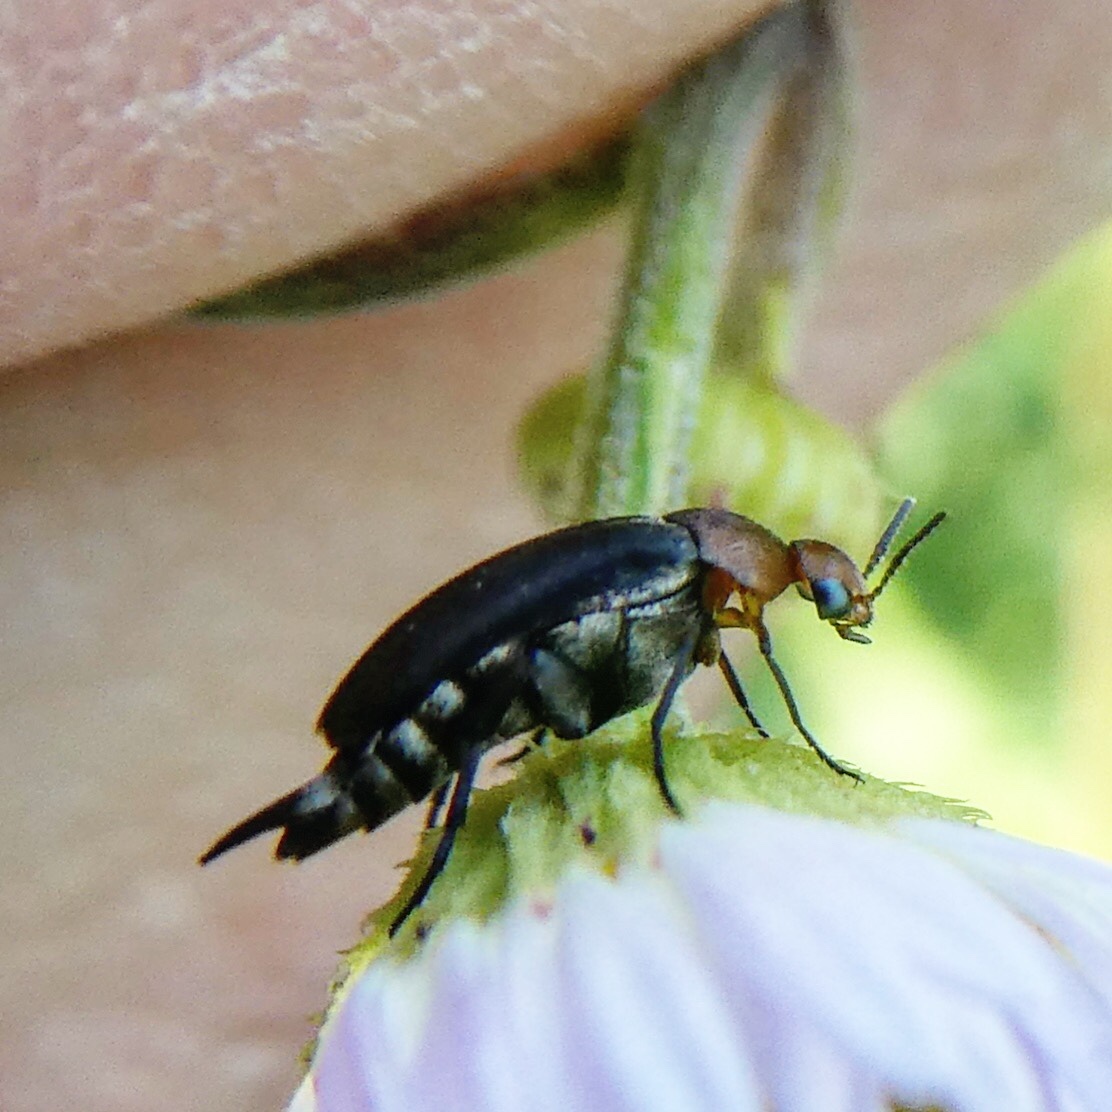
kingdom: Animalia
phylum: Arthropoda
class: Insecta
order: Coleoptera
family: Mordellidae
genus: Mordellistena
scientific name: Mordellistena cervicalis
